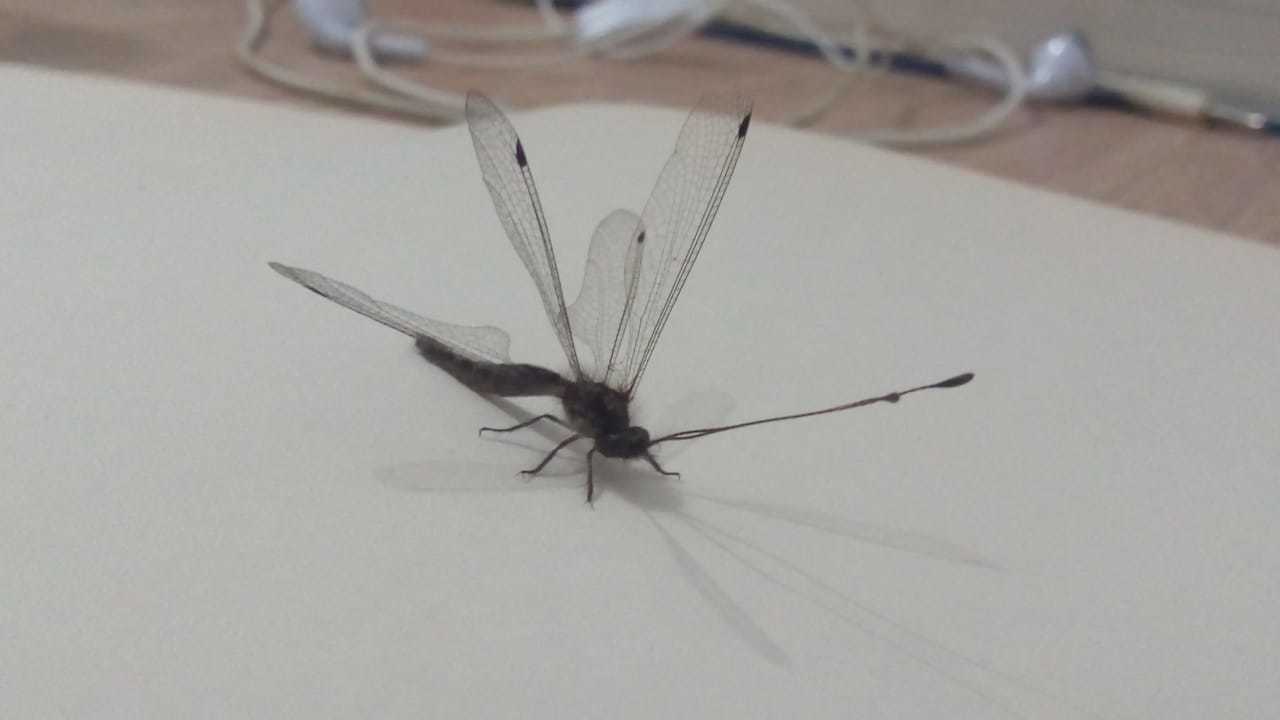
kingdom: Animalia
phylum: Arthropoda
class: Insecta
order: Neuroptera
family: Ascalaphidae
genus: Ascalorphne
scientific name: Ascalorphne impavida
